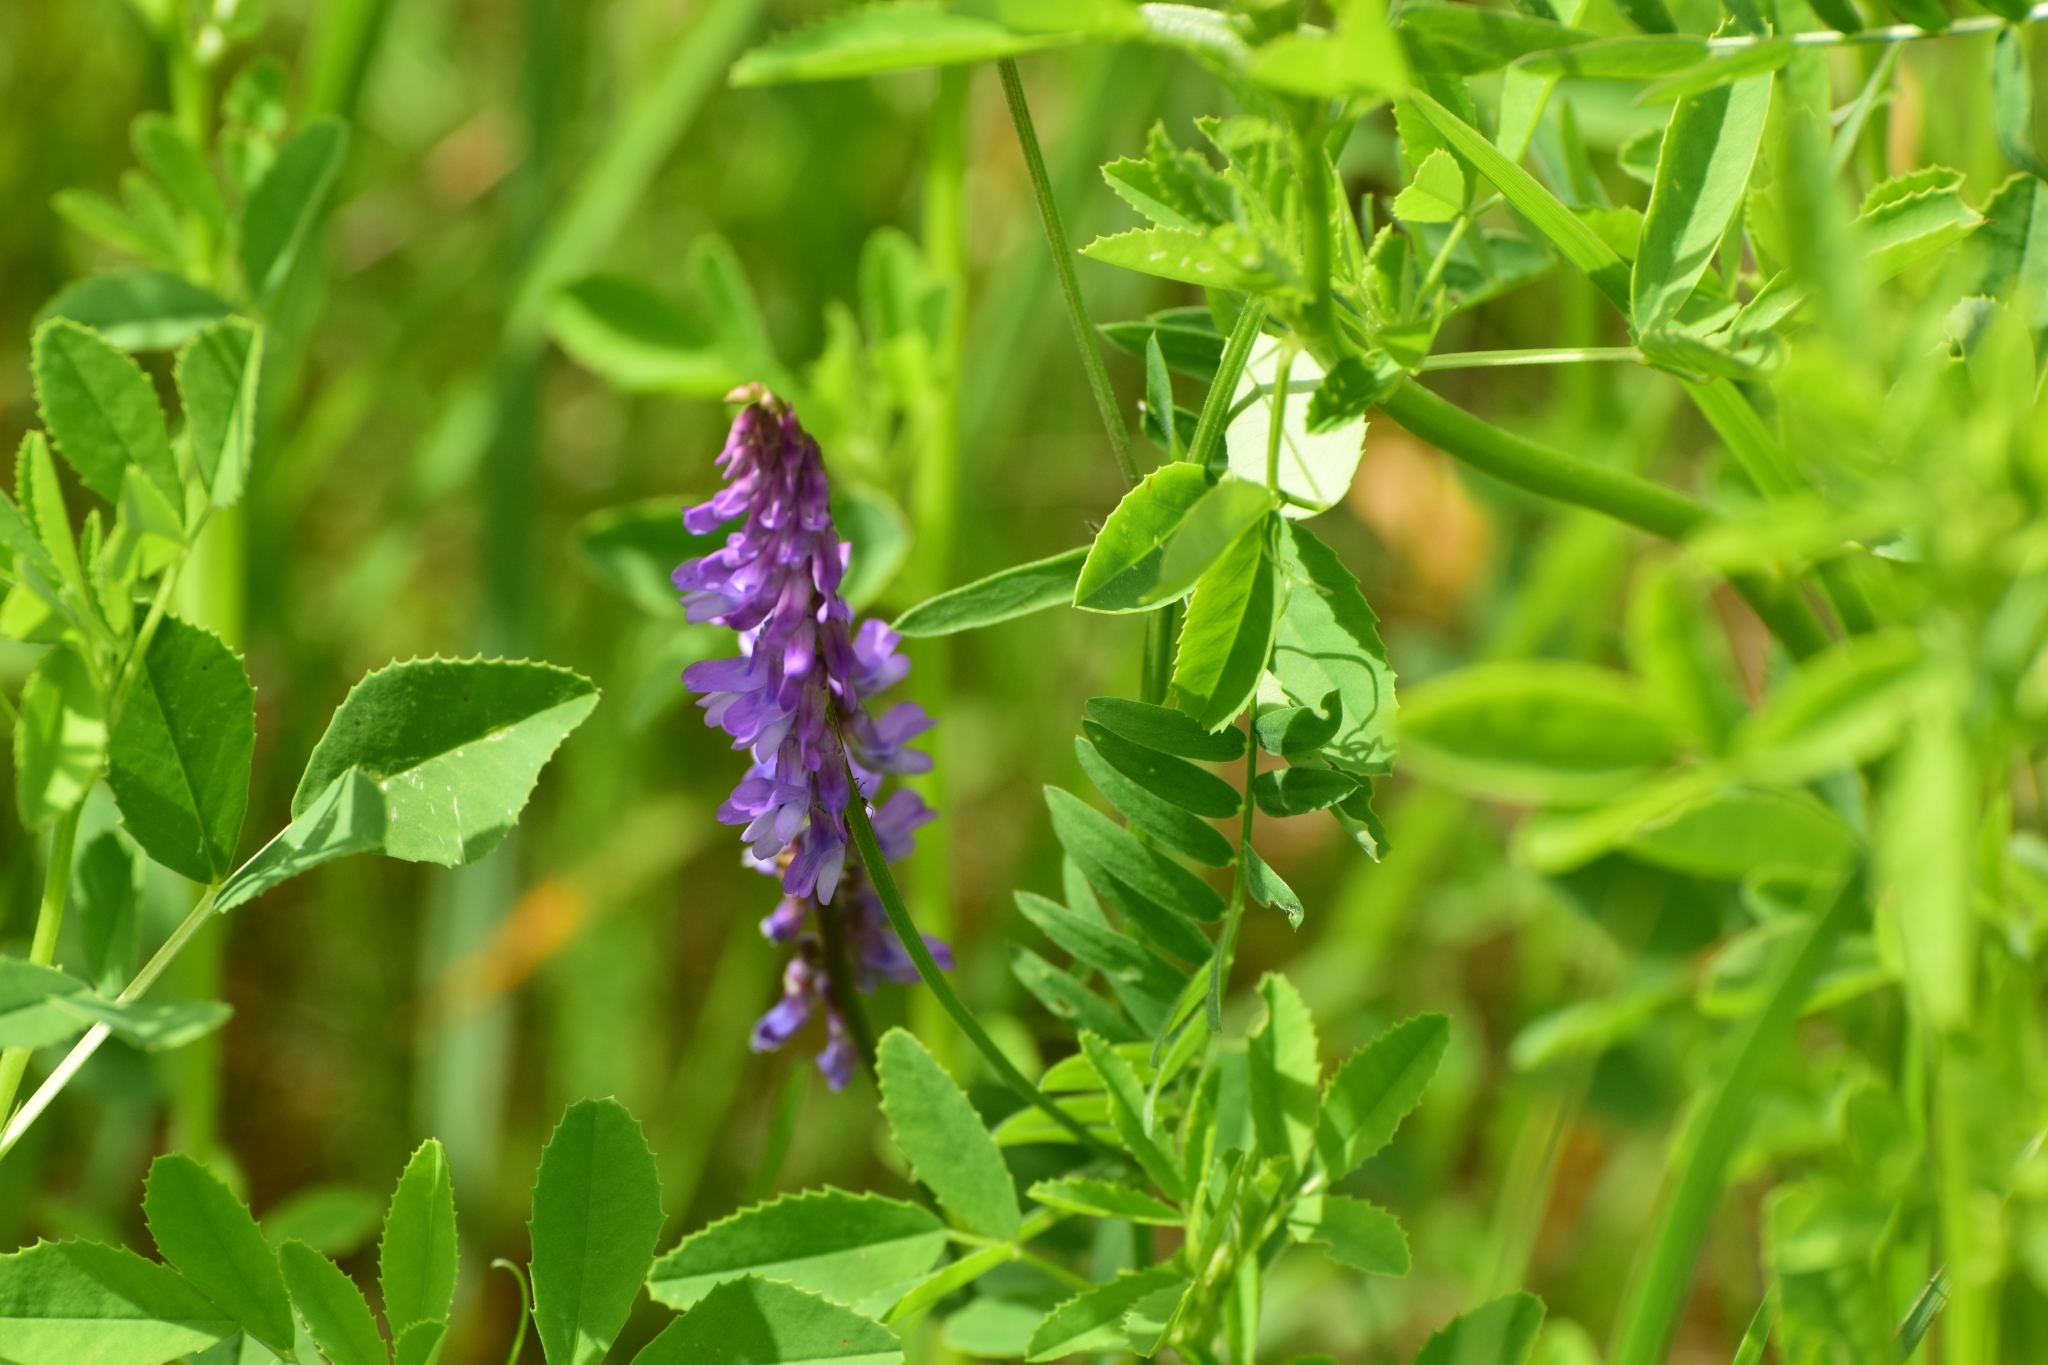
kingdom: Plantae
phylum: Tracheophyta
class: Magnoliopsida
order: Fabales
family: Fabaceae
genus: Vicia
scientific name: Vicia cracca
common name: Bird vetch
